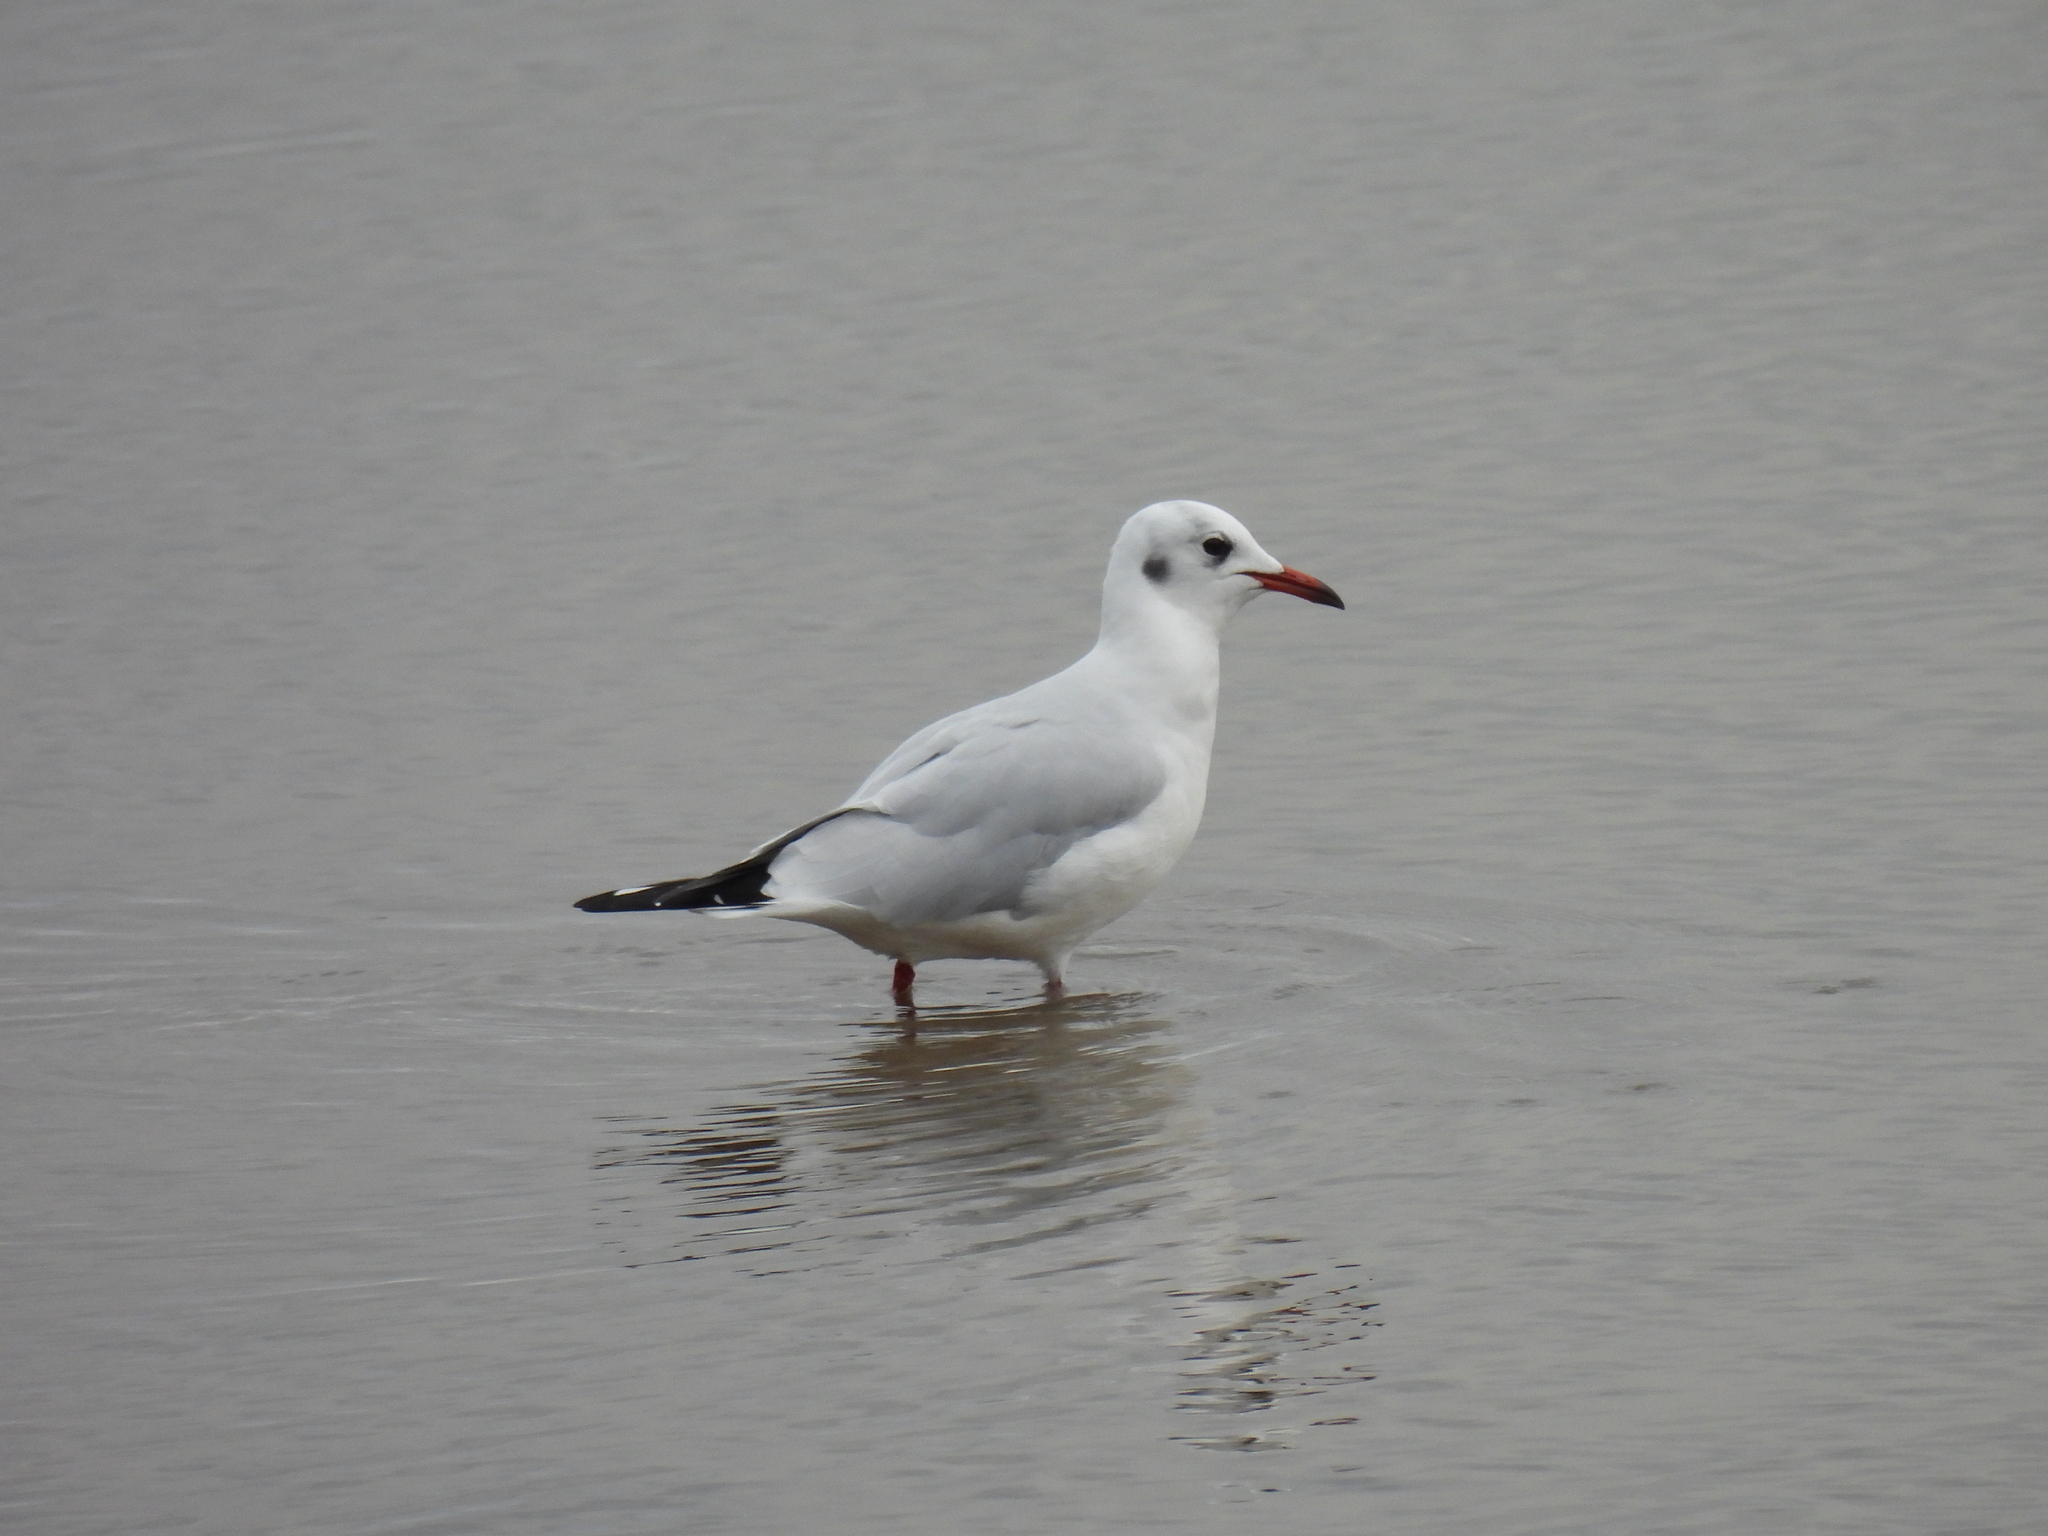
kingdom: Animalia
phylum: Chordata
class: Aves
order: Charadriiformes
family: Laridae
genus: Chroicocephalus
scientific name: Chroicocephalus ridibundus
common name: Black-headed gull
